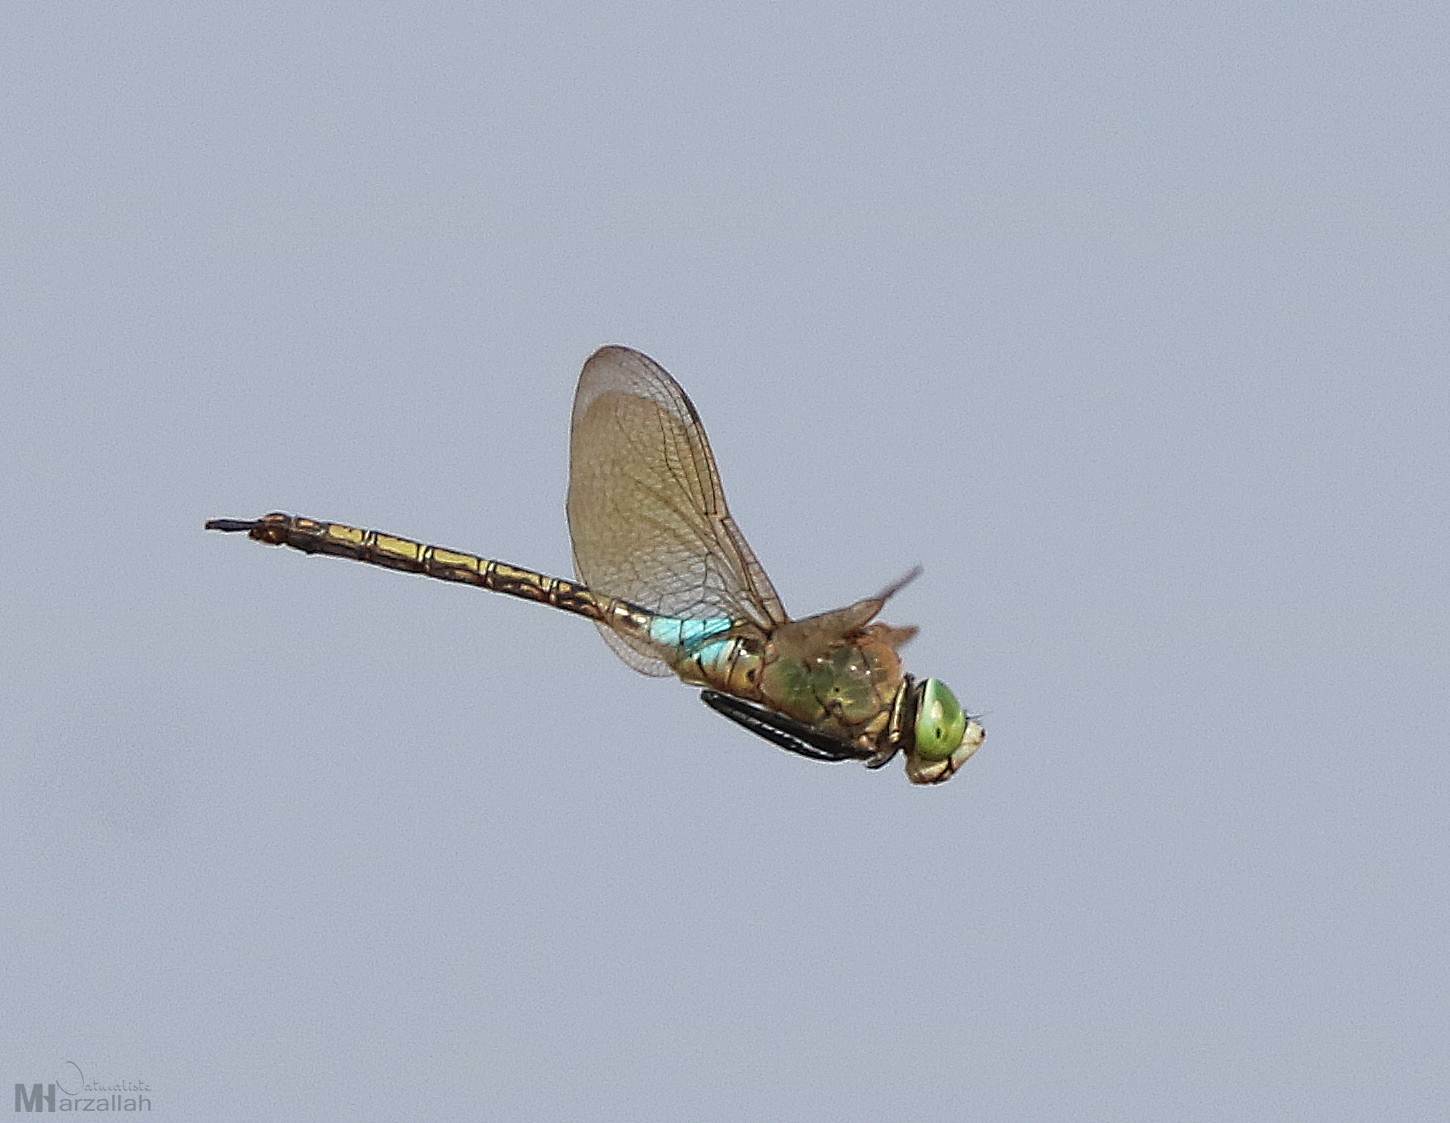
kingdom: Animalia
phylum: Arthropoda
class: Insecta
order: Odonata
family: Aeshnidae
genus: Anax
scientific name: Anax parthenope
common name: Lesser emperor
